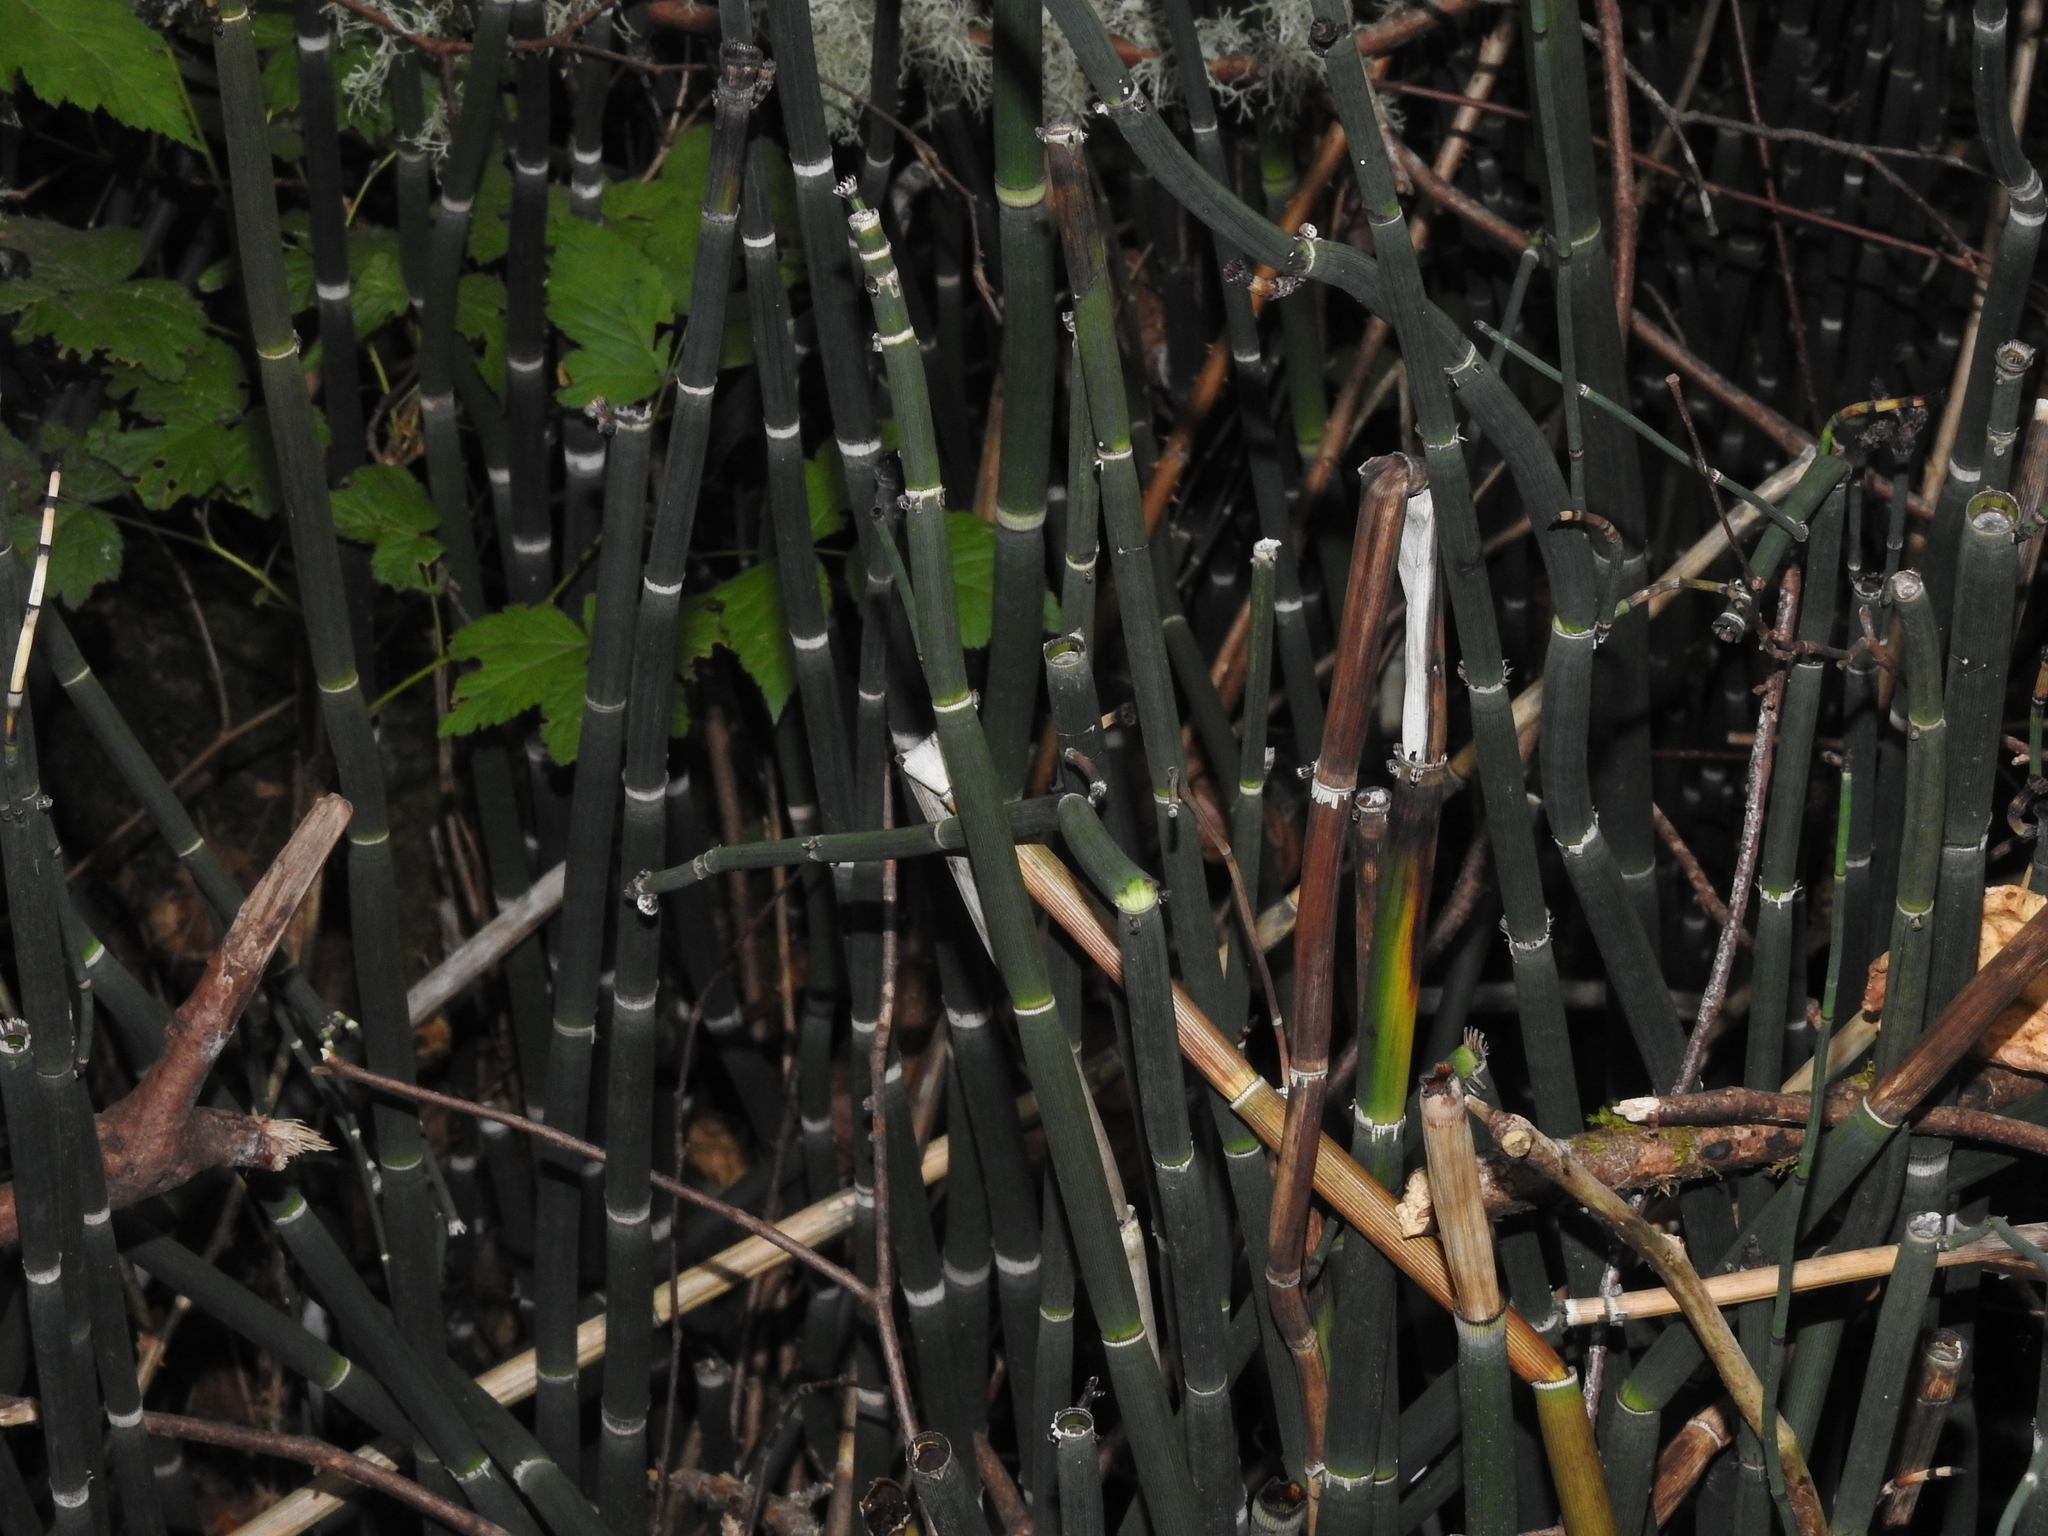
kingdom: Plantae
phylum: Tracheophyta
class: Polypodiopsida
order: Equisetales
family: Equisetaceae
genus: Equisetum
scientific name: Equisetum hyemale
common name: Rough horsetail
